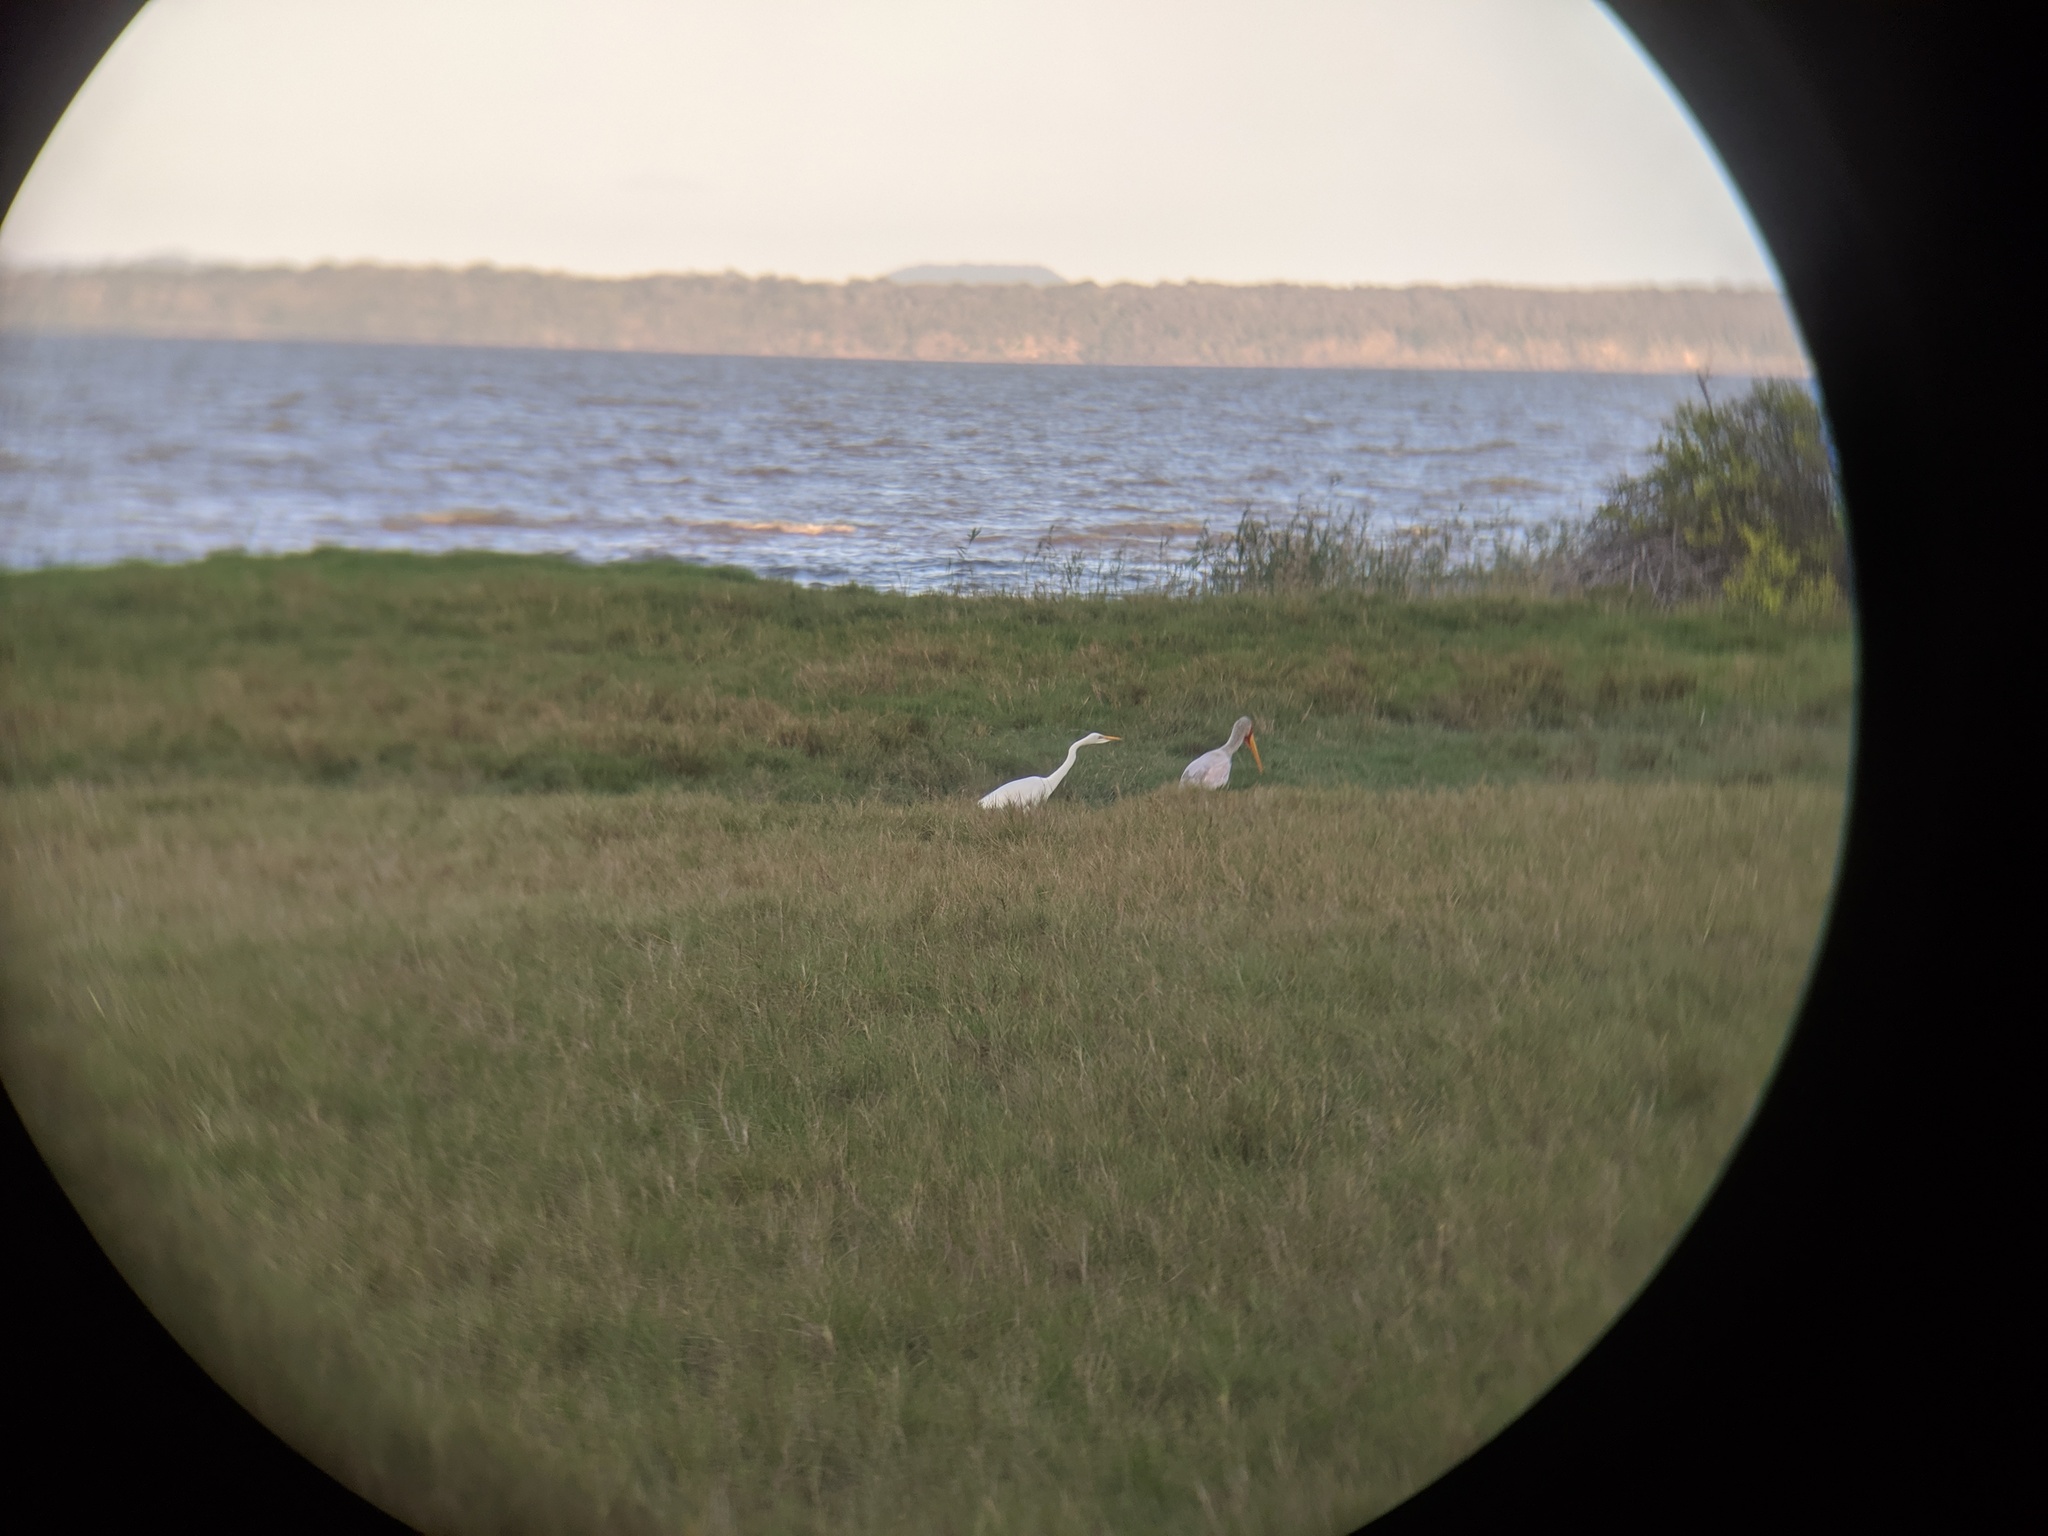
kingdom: Animalia
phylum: Chordata
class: Aves
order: Pelecaniformes
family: Ardeidae
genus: Ardea
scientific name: Ardea alba
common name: Great egret
